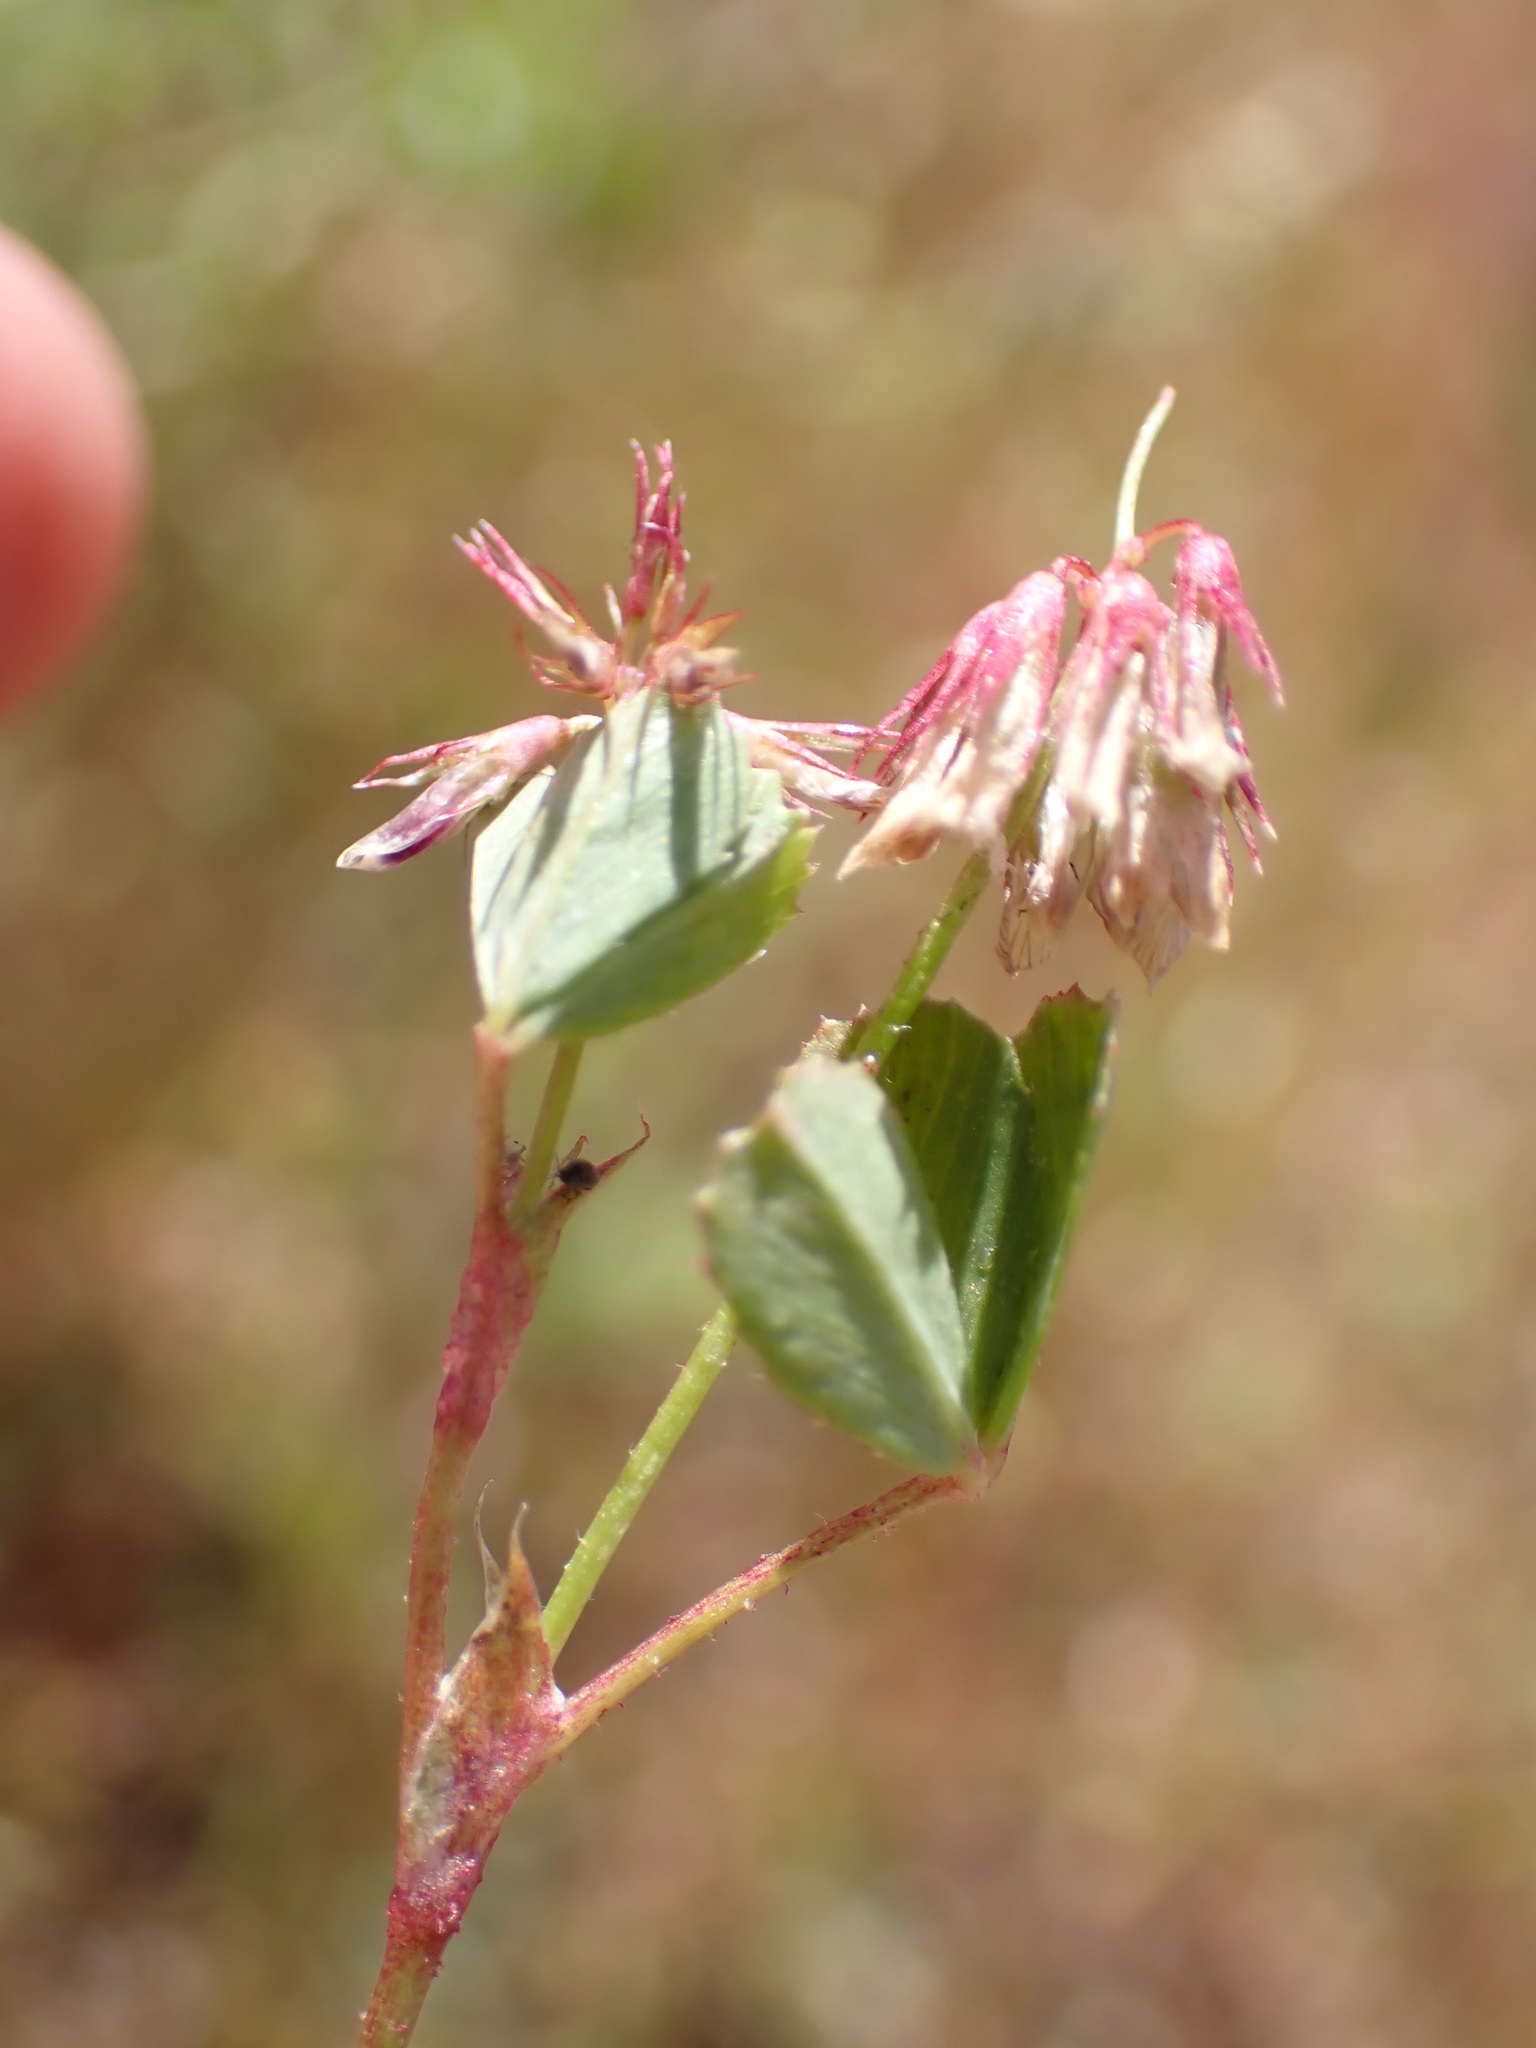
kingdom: Plantae
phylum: Tracheophyta
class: Magnoliopsida
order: Fabales
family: Fabaceae
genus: Trifolium
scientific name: Trifolium gracilentum
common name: Slender clover
